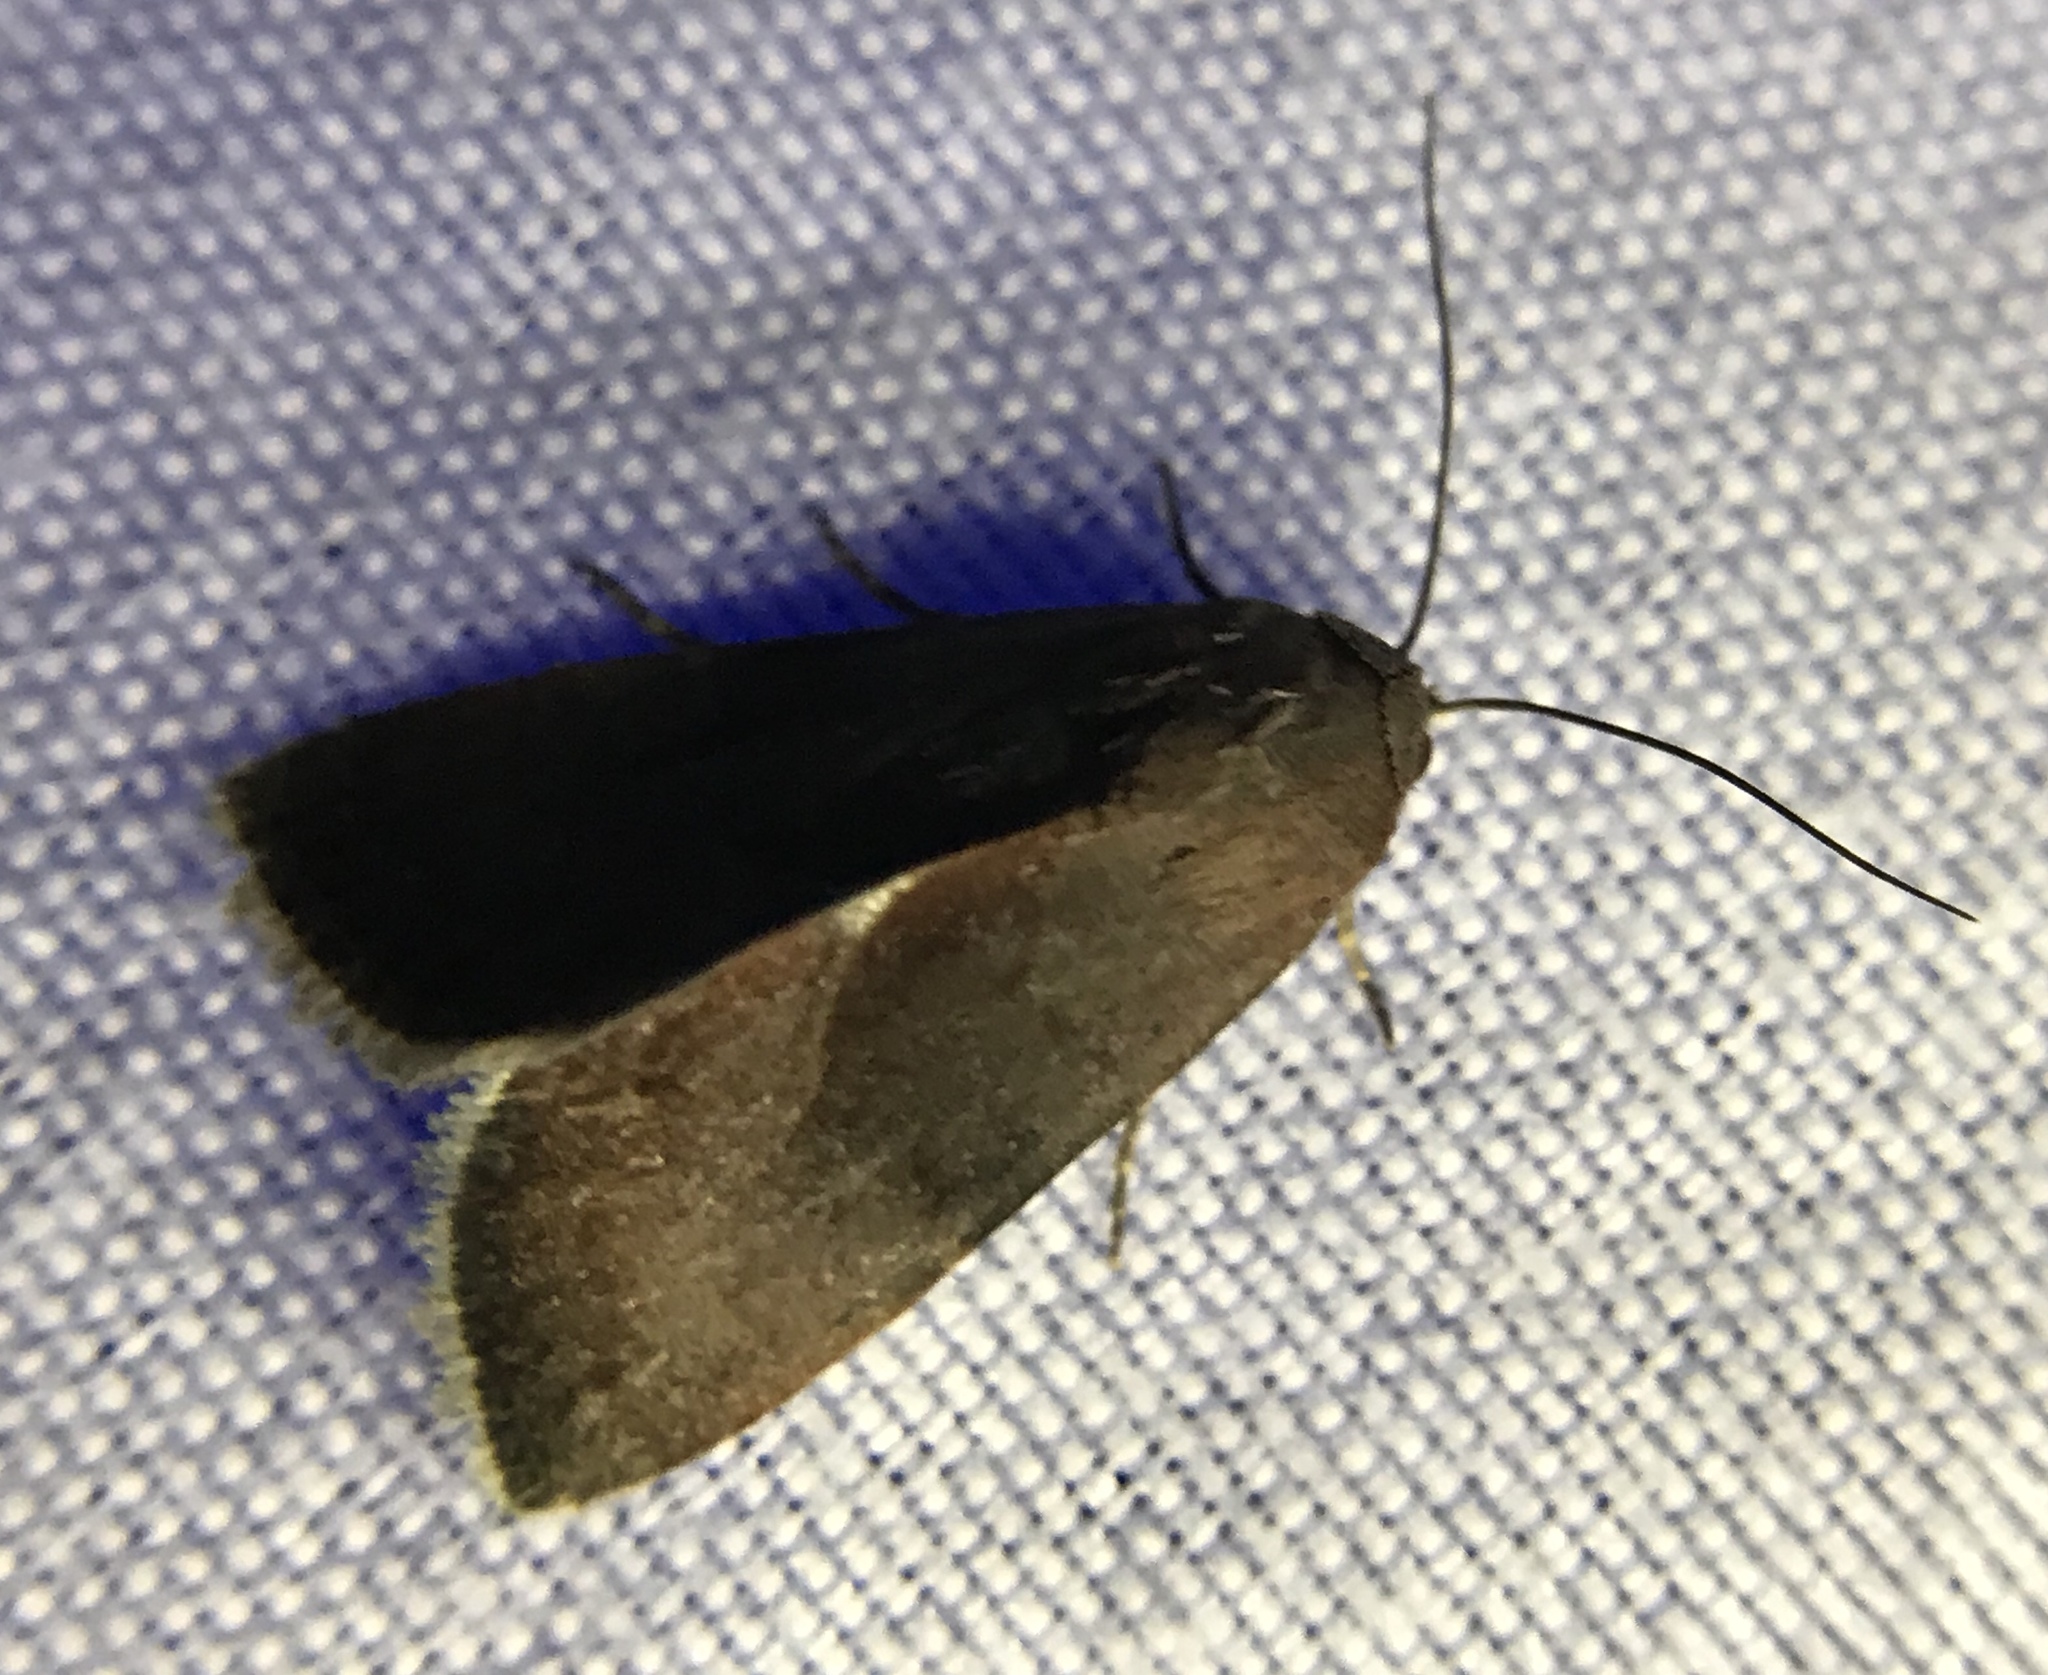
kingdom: Animalia
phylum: Arthropoda
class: Insecta
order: Lepidoptera
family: Noctuidae
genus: Galgula
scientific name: Galgula partita
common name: Wedgeling
